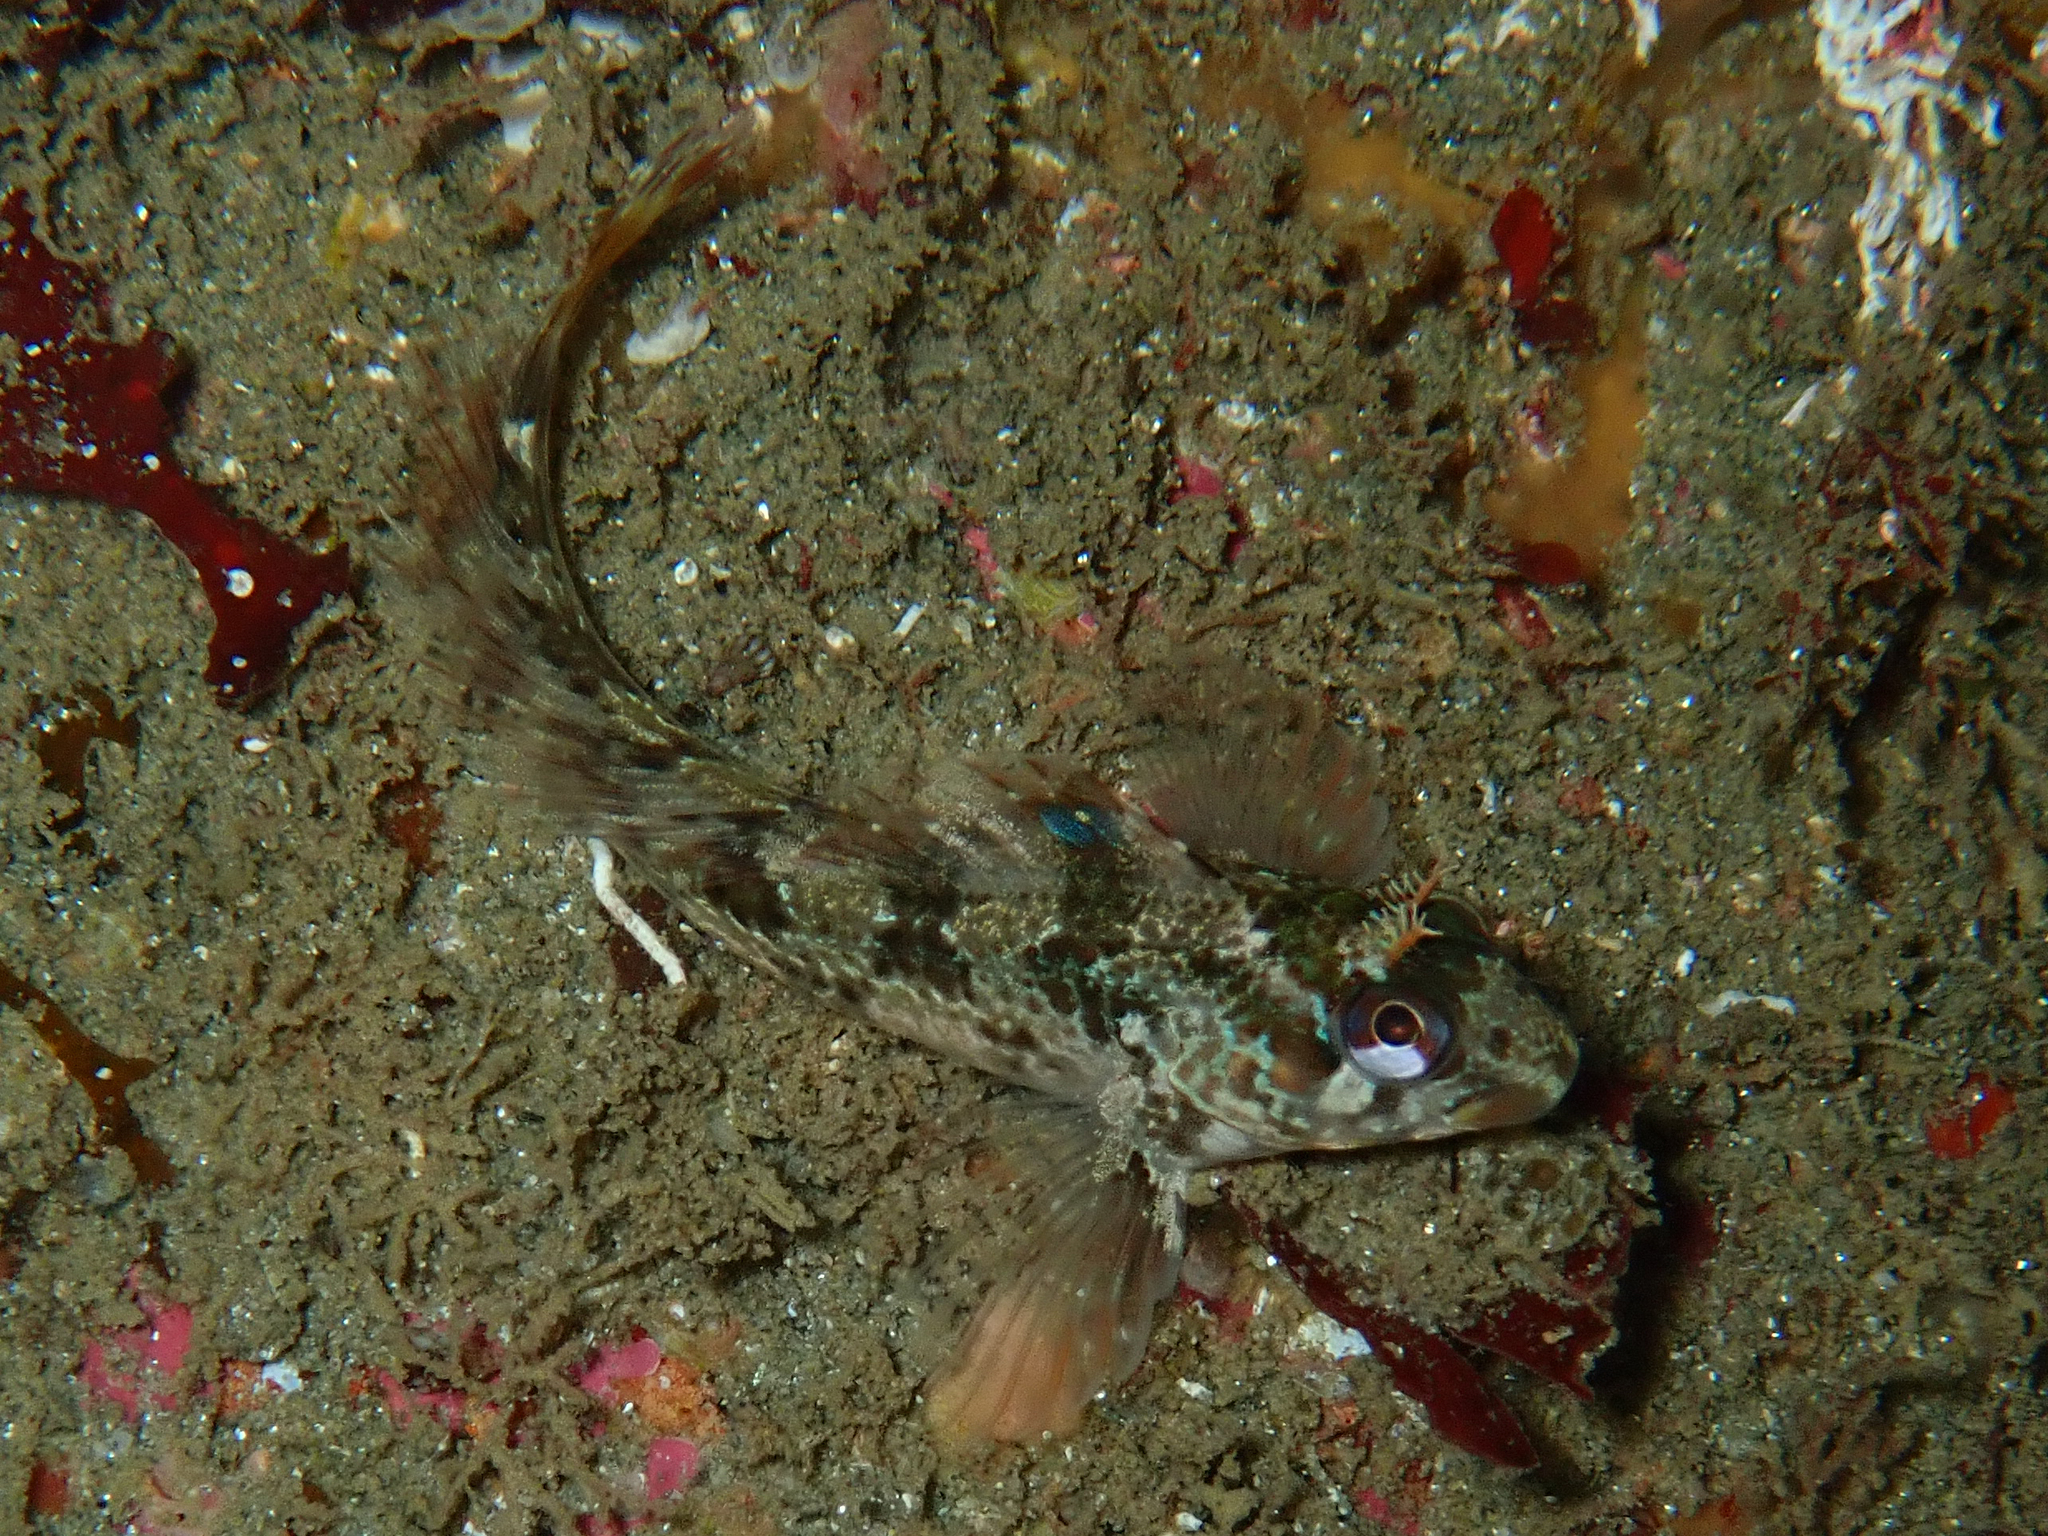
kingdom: Animalia
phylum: Chordata
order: Perciformes
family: Blenniidae
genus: Parablennius
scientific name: Parablennius gattorugine
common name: Tompot blenny
